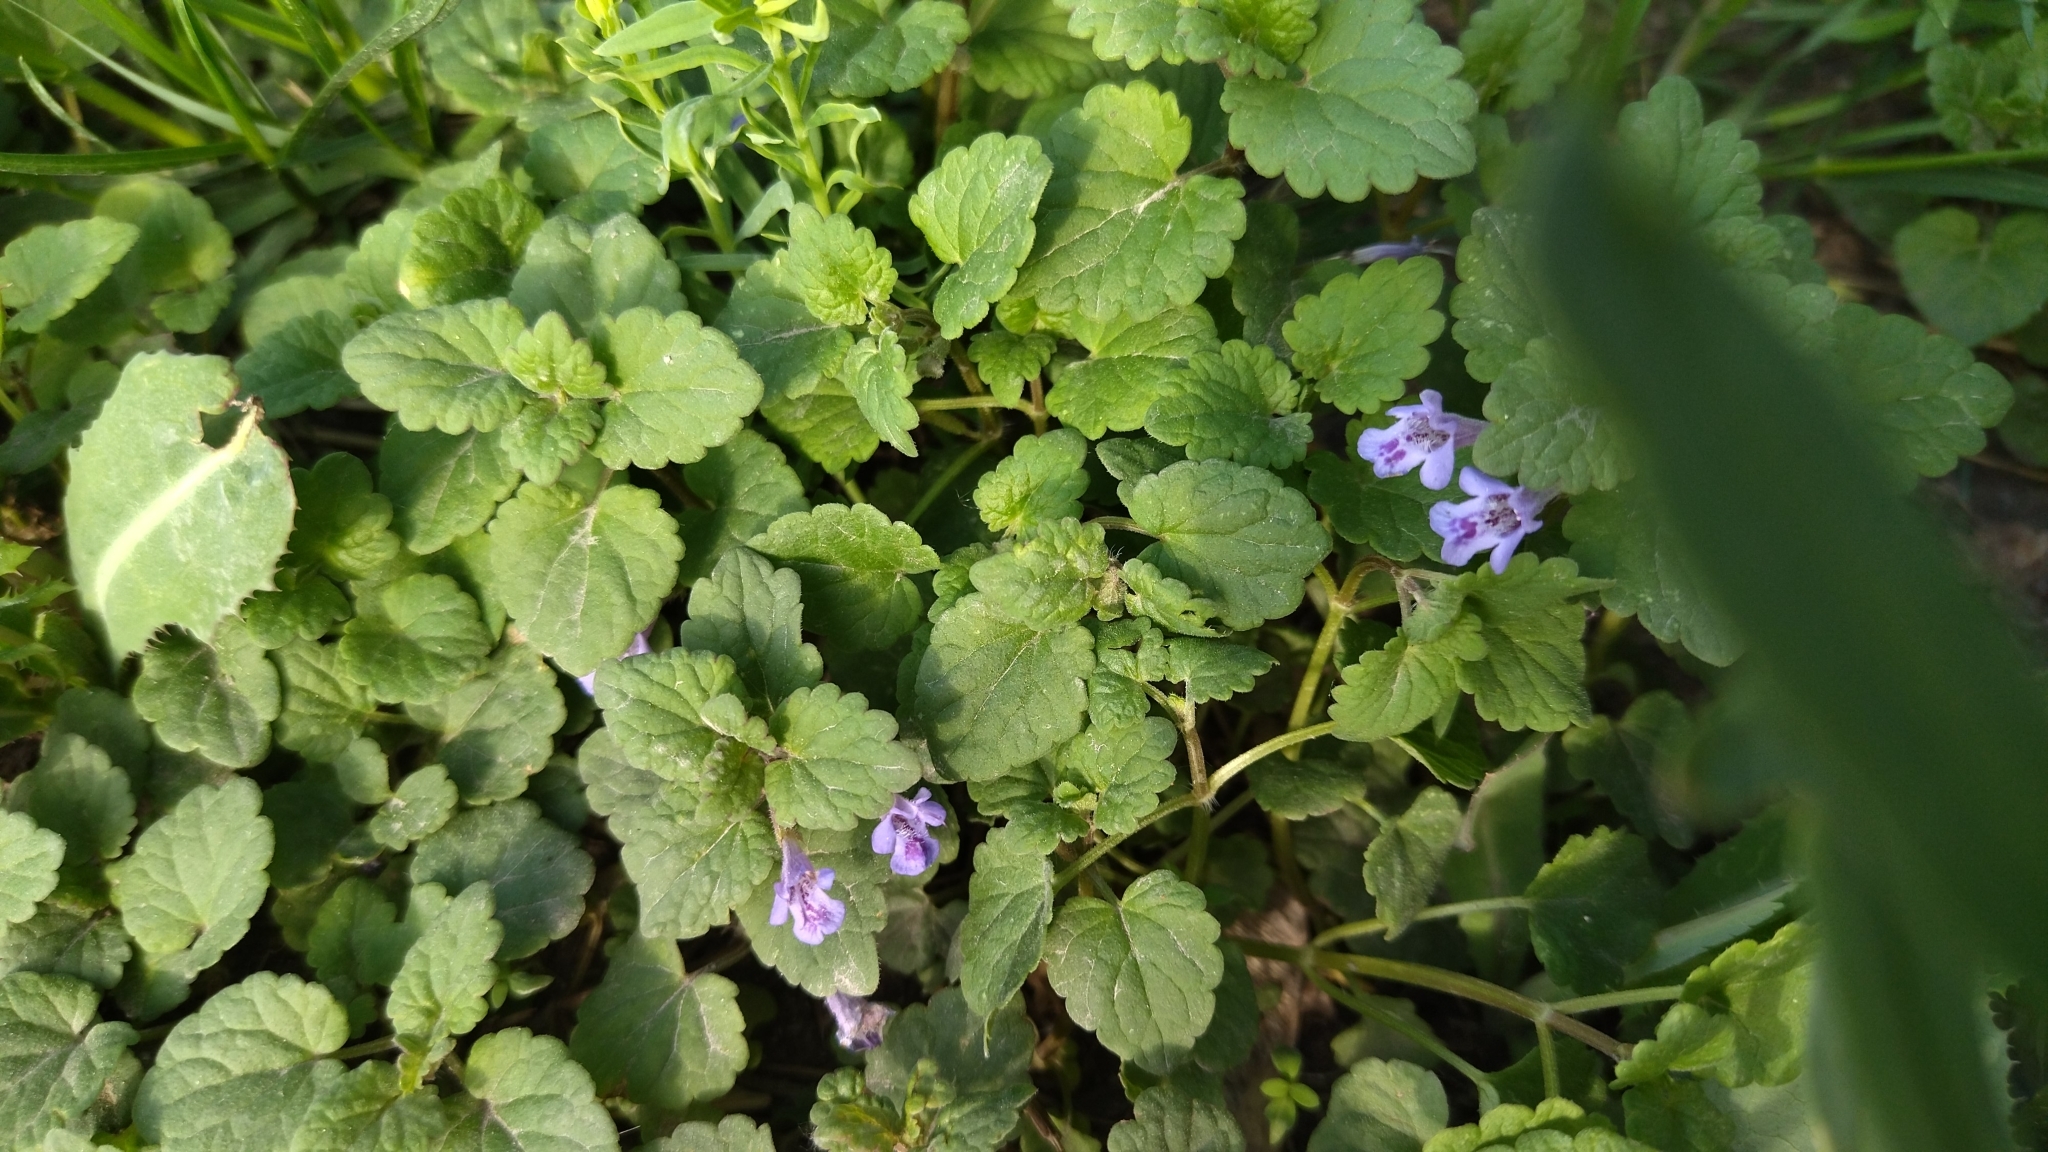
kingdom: Plantae
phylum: Tracheophyta
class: Magnoliopsida
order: Lamiales
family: Lamiaceae
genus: Glechoma
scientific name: Glechoma hederacea
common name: Ground ivy
